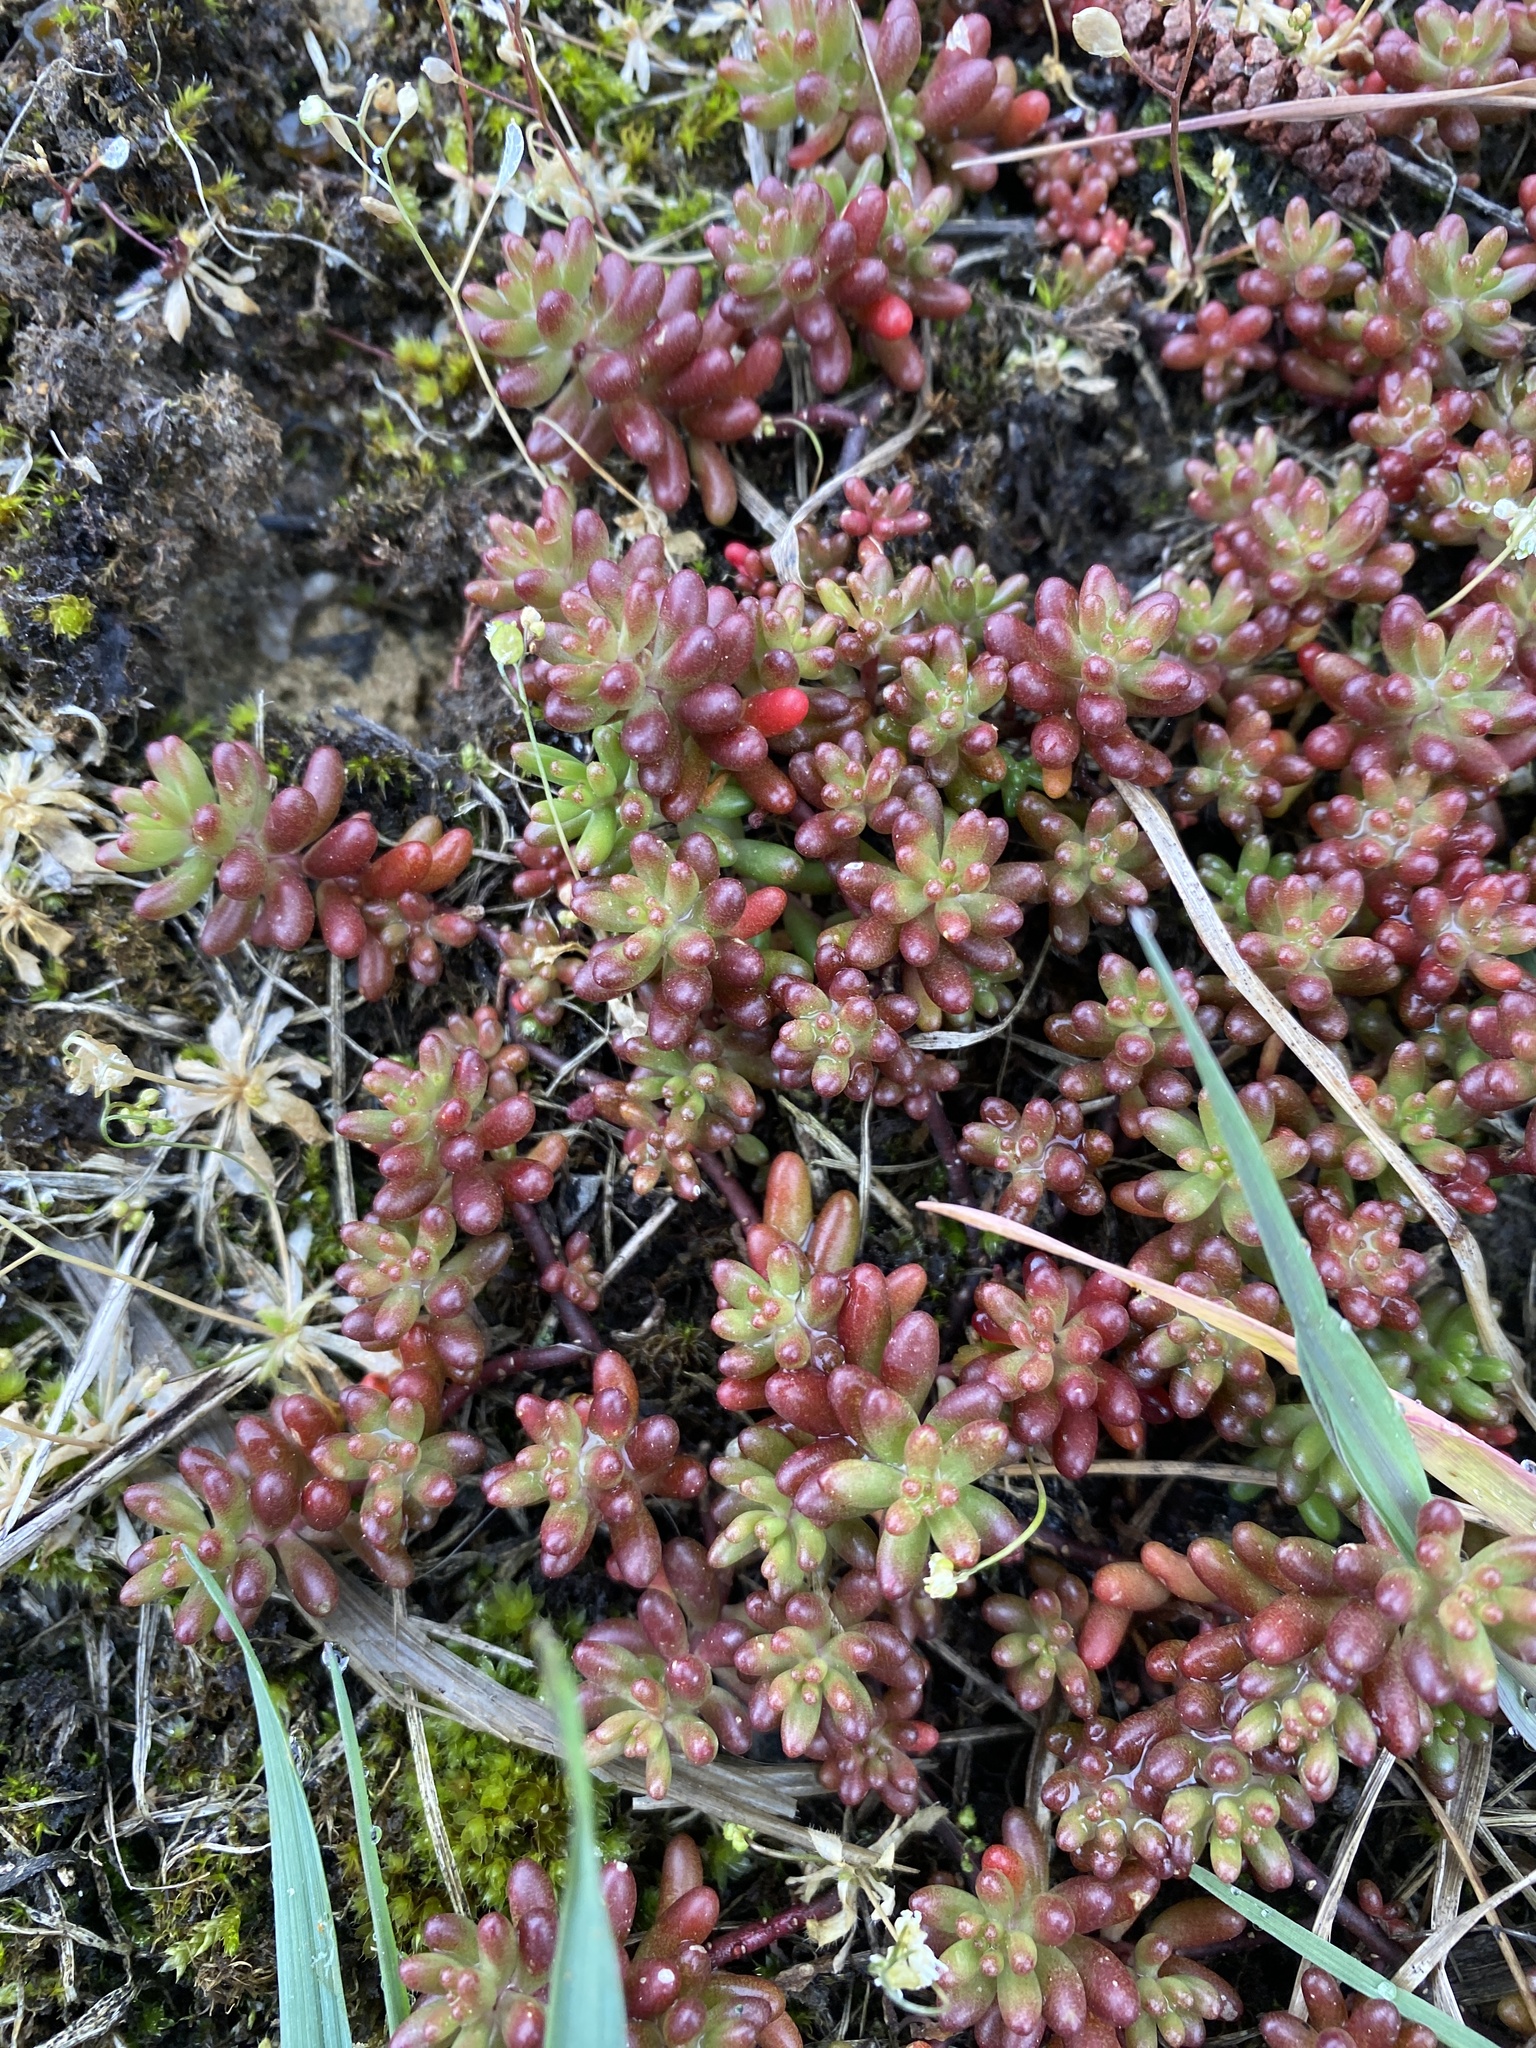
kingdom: Plantae
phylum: Tracheophyta
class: Magnoliopsida
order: Saxifragales
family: Crassulaceae
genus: Sedum
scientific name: Sedum album
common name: White stonecrop
